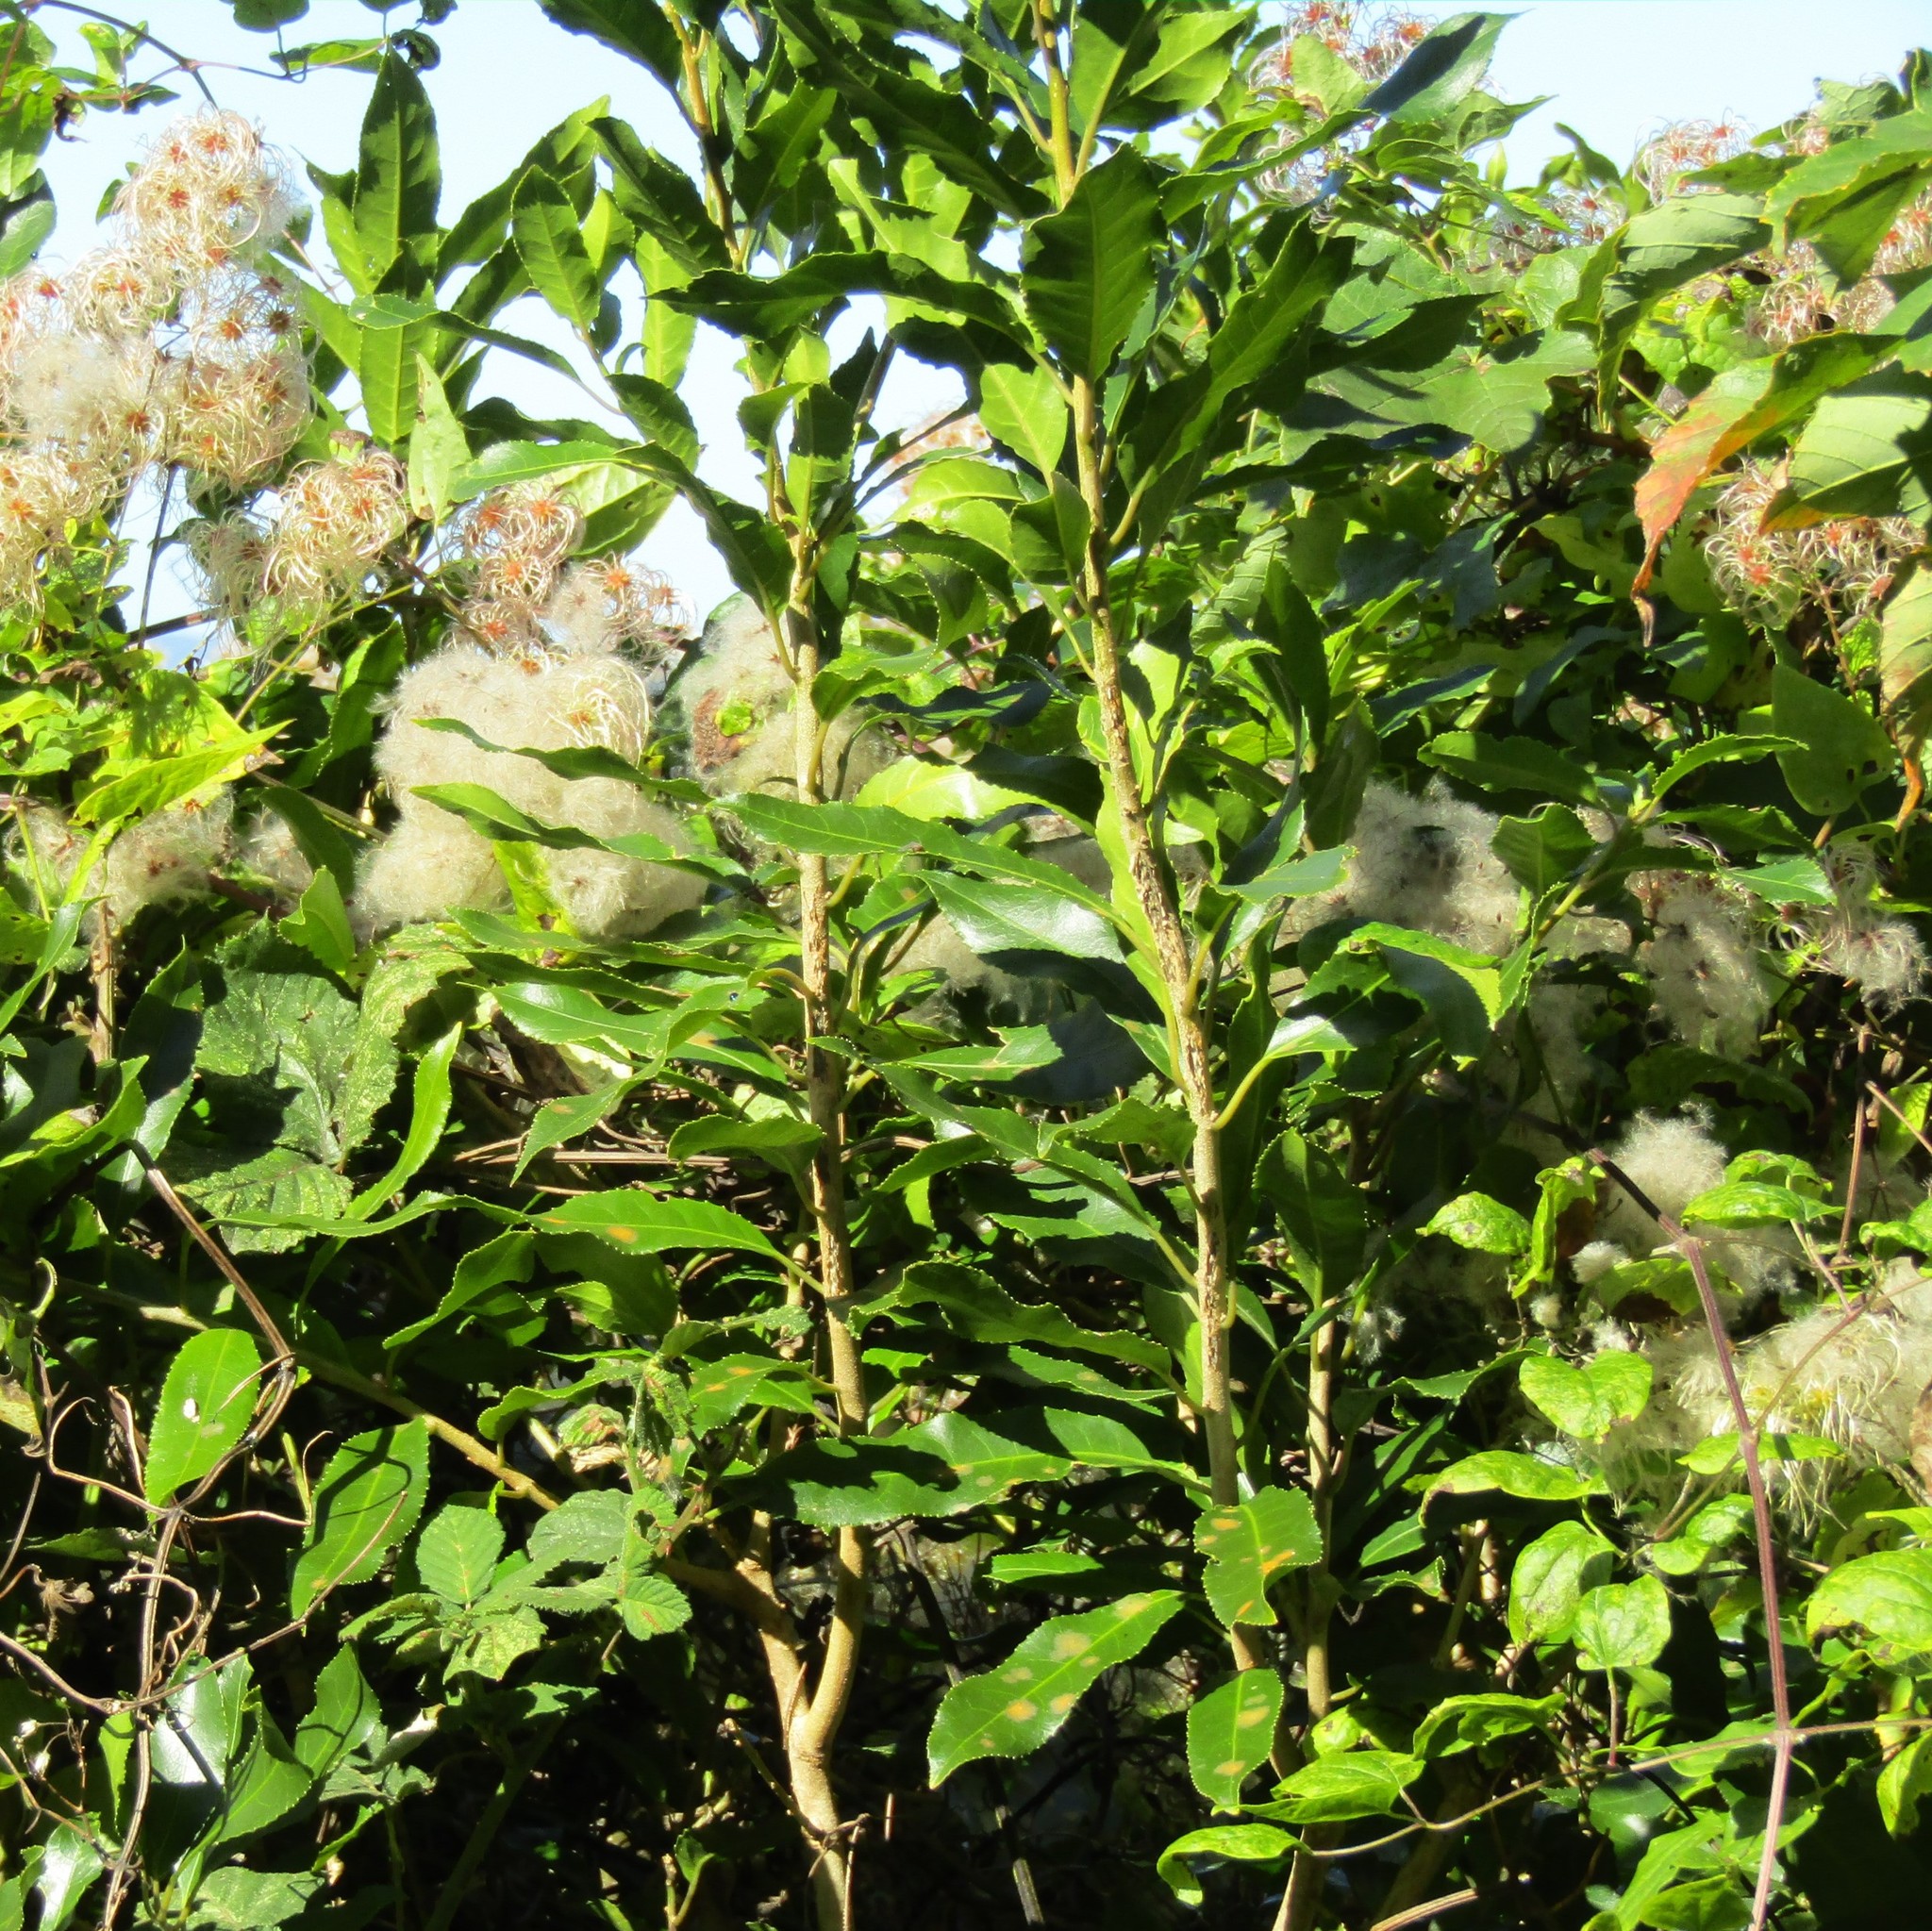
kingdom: Plantae
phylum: Tracheophyta
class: Magnoliopsida
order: Malpighiales
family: Violaceae
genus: Melicytus
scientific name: Melicytus ramiflorus
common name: Mahoe
